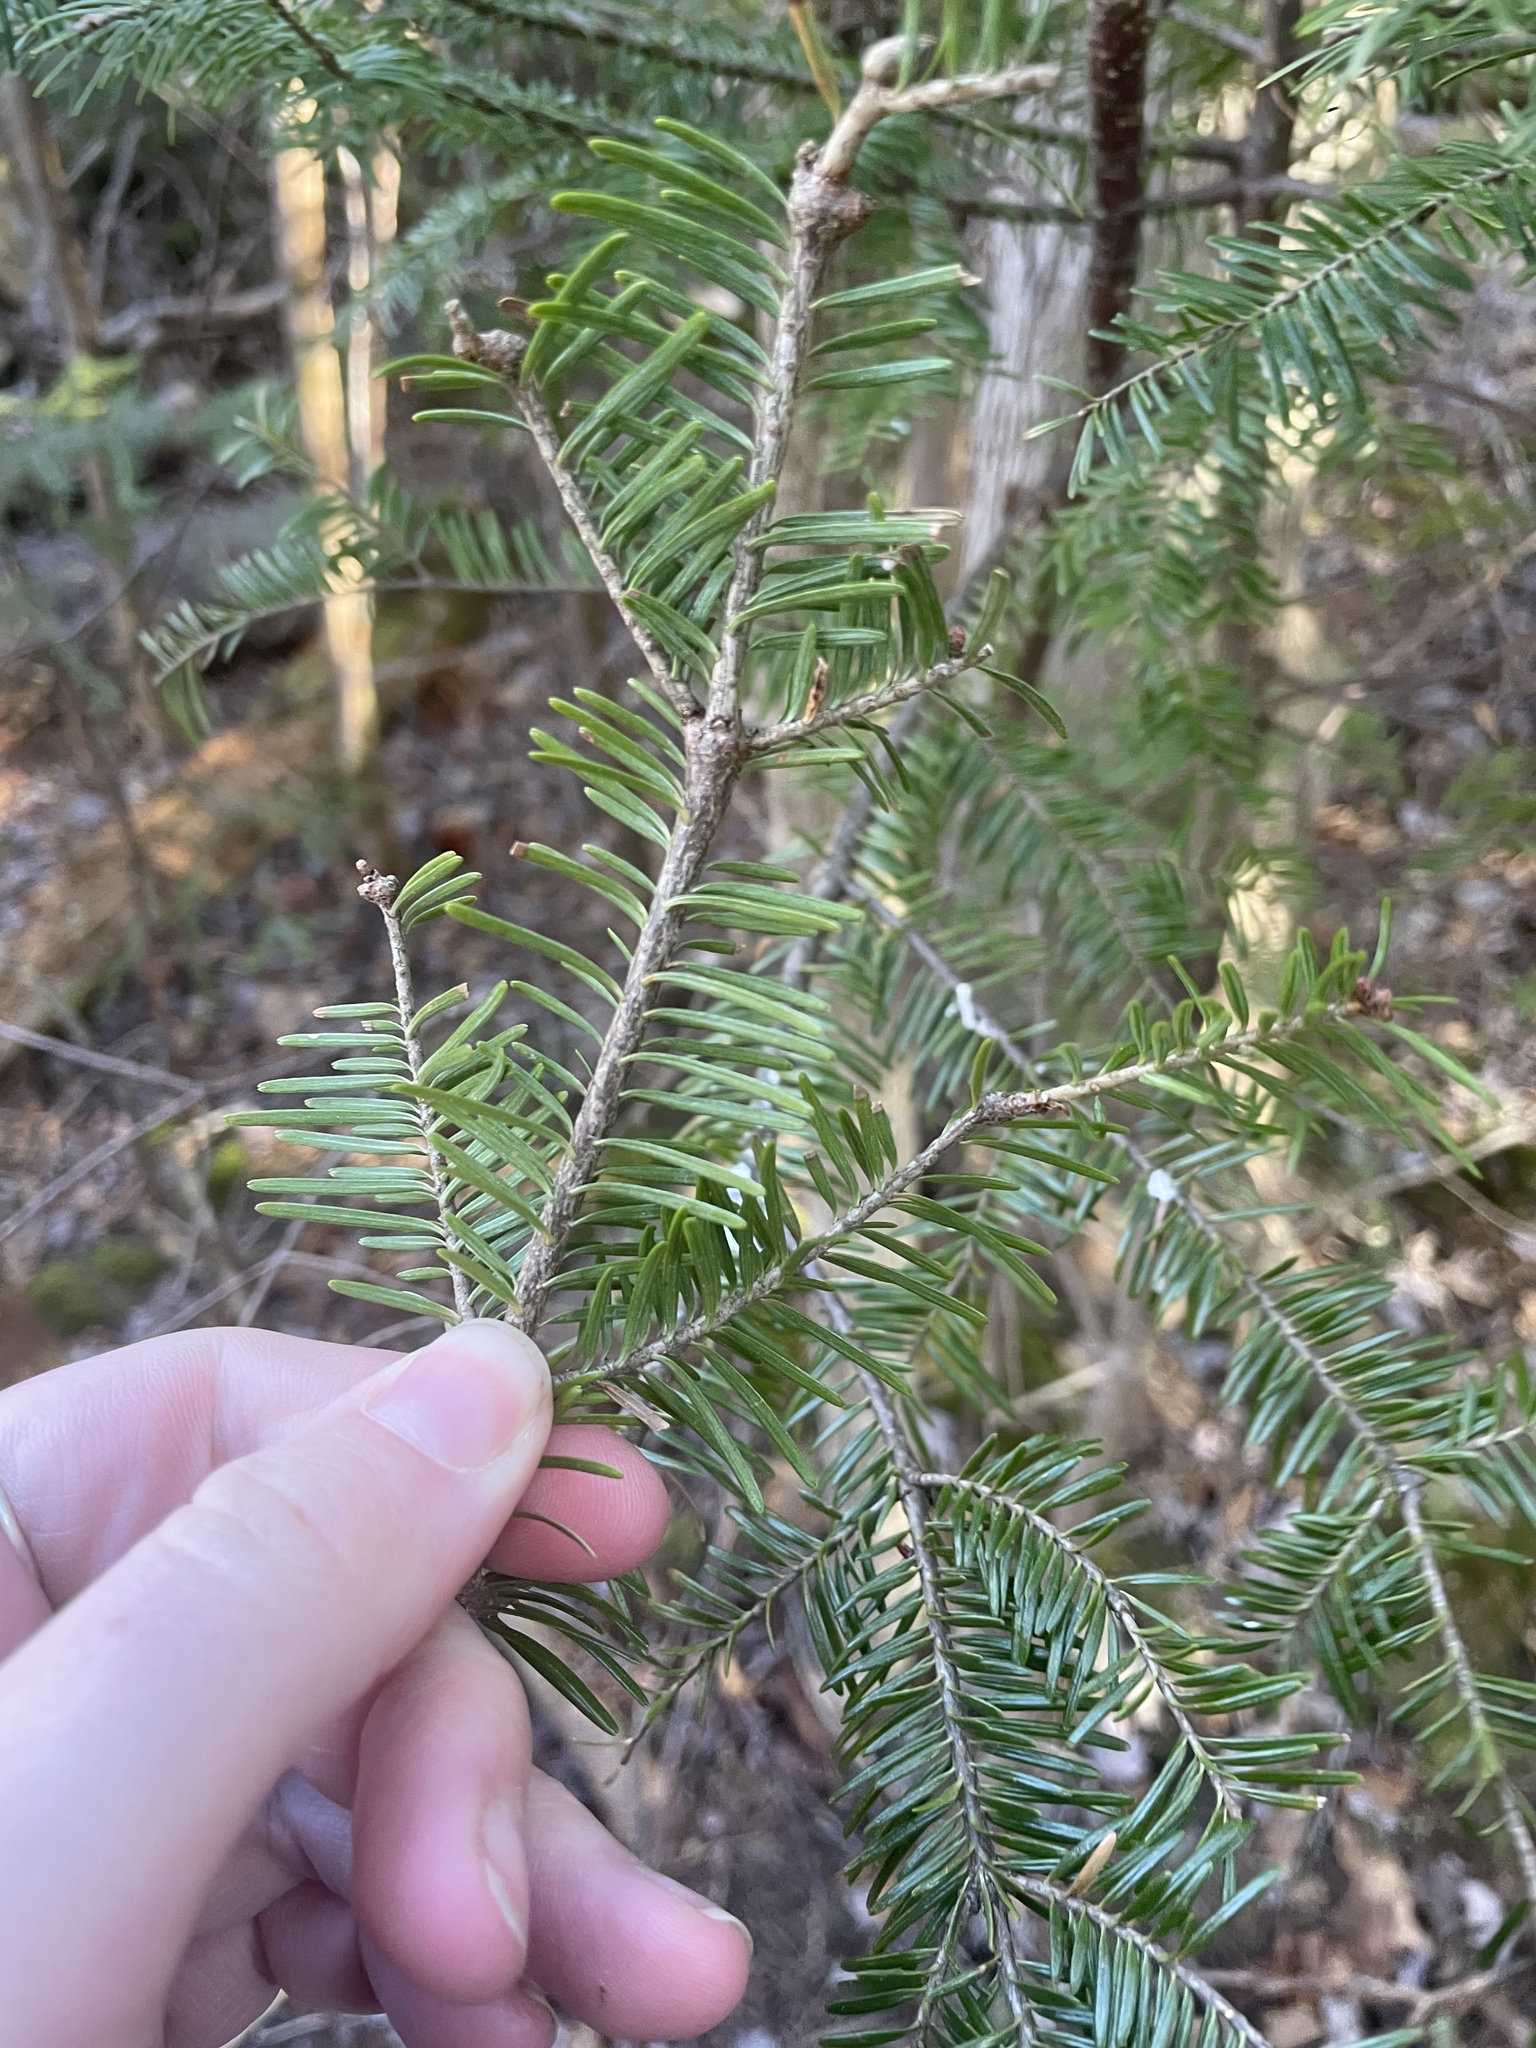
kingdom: Plantae
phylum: Tracheophyta
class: Pinopsida
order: Pinales
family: Pinaceae
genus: Abies
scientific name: Abies balsamea
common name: Balsam fir
